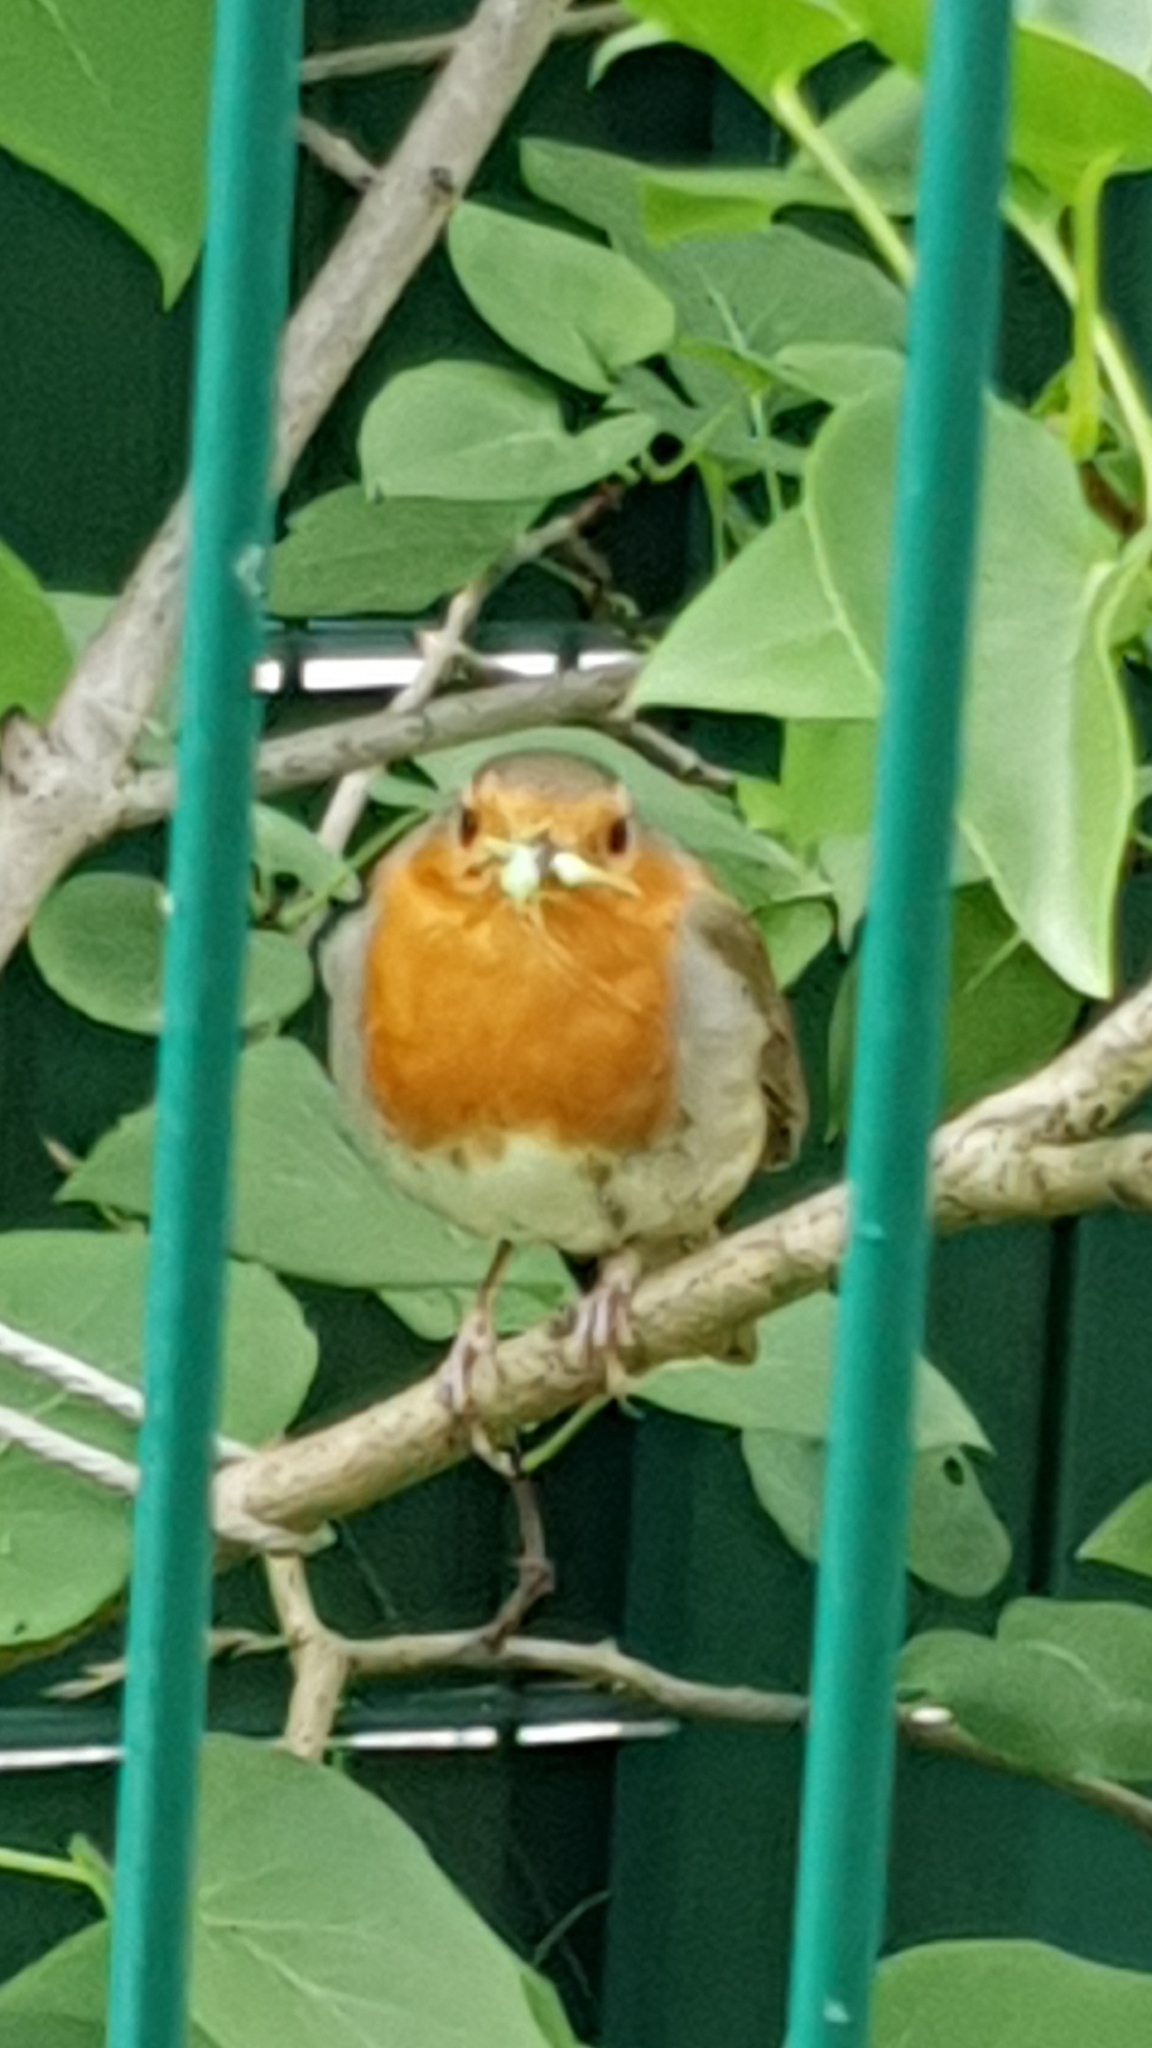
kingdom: Animalia
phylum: Chordata
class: Aves
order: Passeriformes
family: Muscicapidae
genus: Erithacus
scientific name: Erithacus rubecula
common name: European robin
